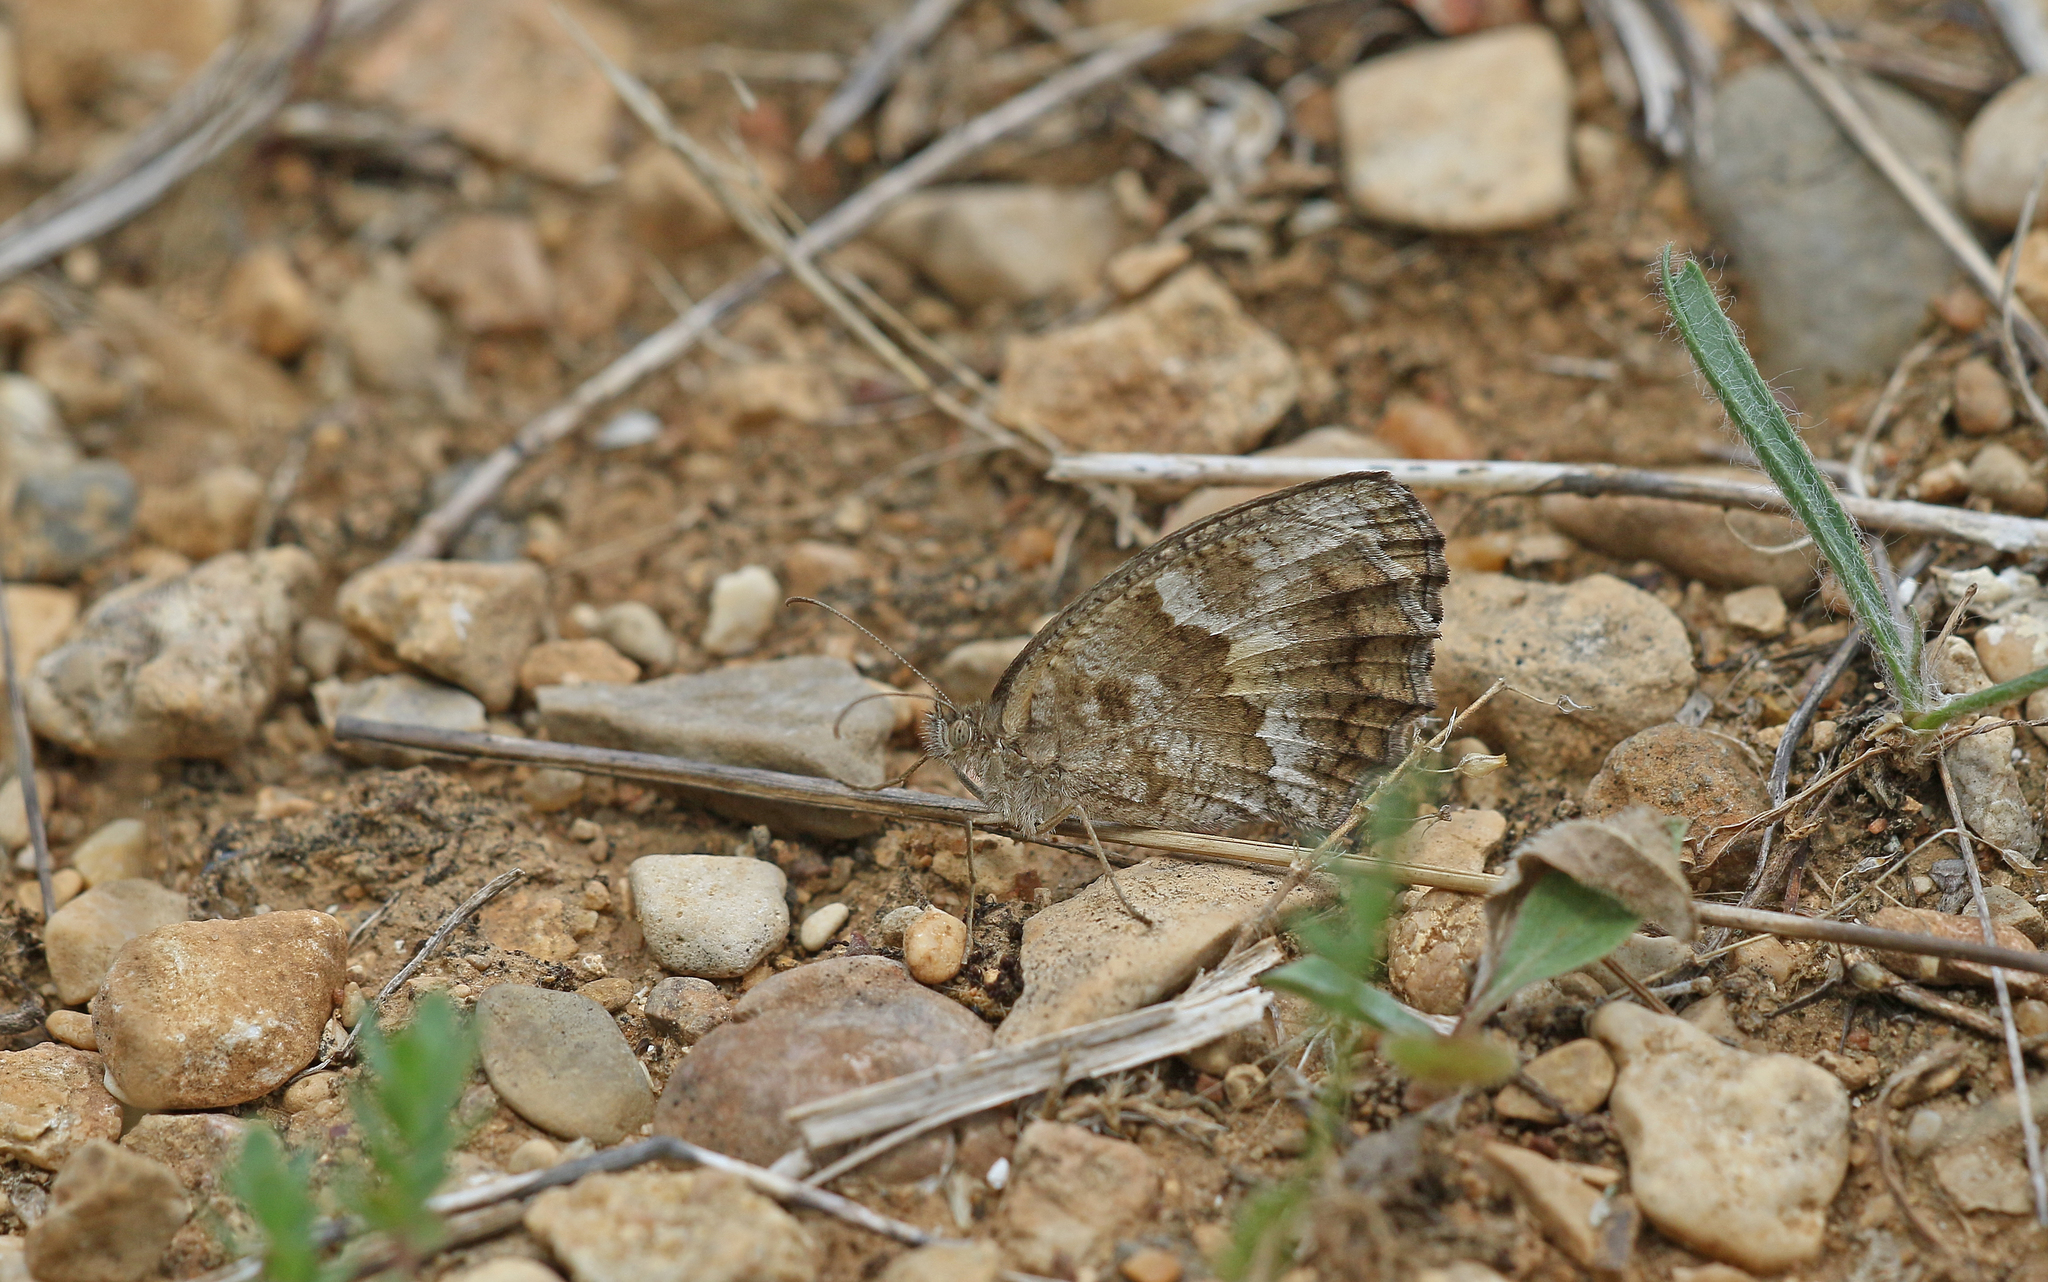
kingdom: Animalia
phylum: Arthropoda
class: Insecta
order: Lepidoptera
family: Nymphalidae
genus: Pyronia
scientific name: Pyronia cecilia
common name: Southern gatekeeper
